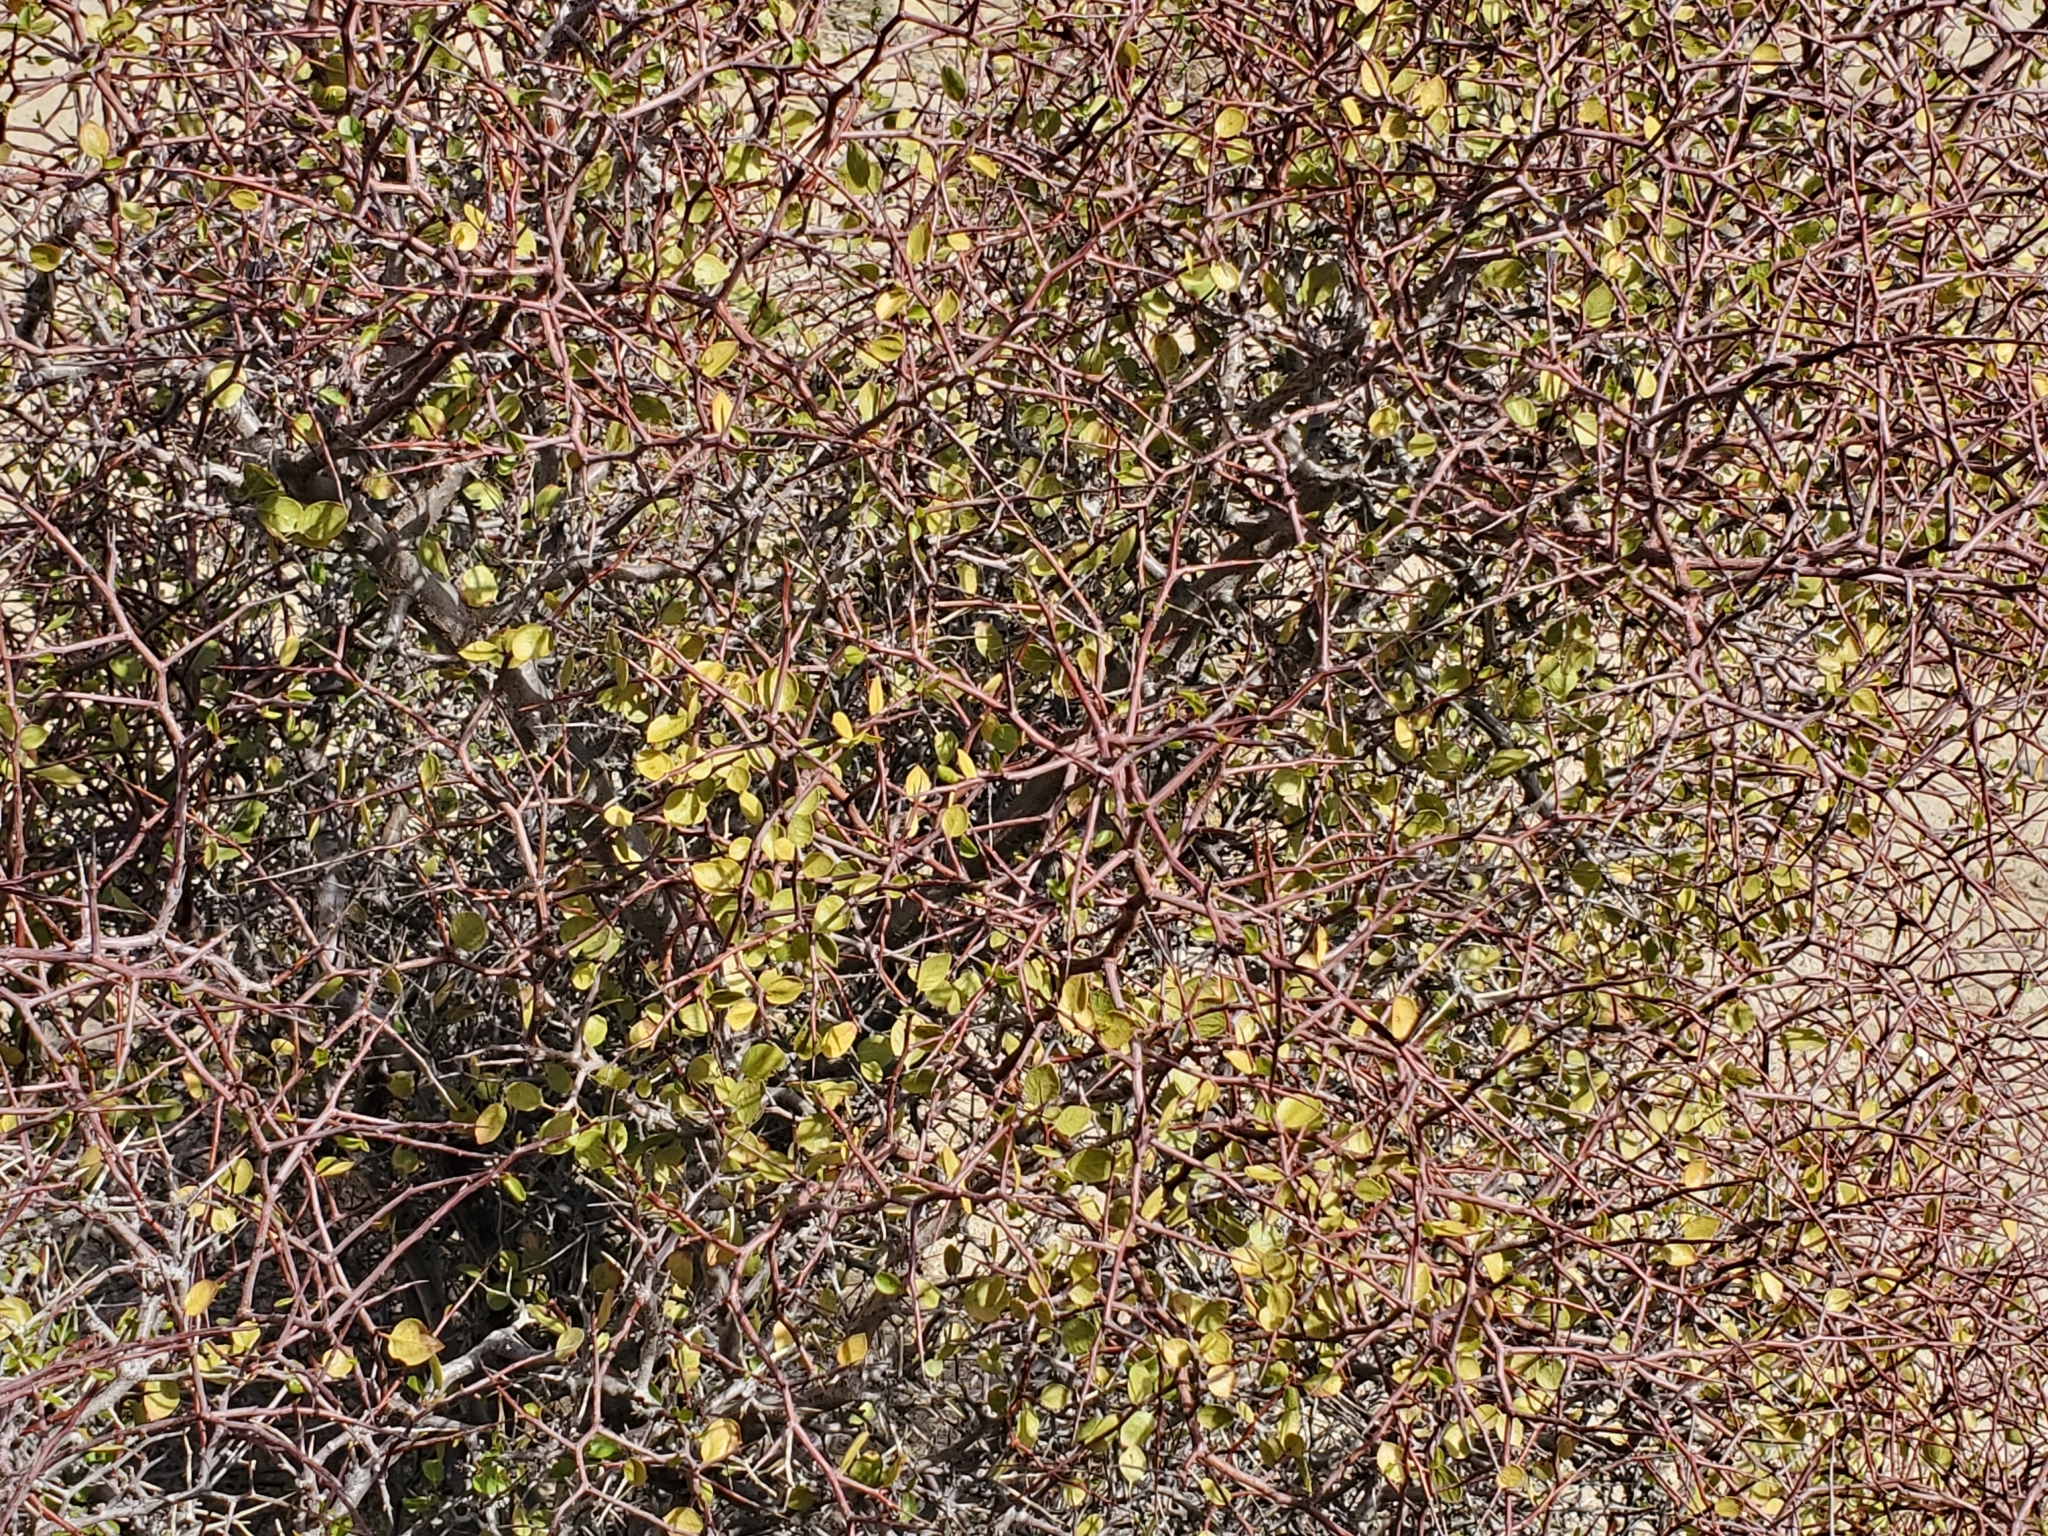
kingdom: Plantae
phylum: Tracheophyta
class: Magnoliopsida
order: Rosales
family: Rosaceae
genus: Prunus
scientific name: Prunus fremontii
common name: Desert apricot
